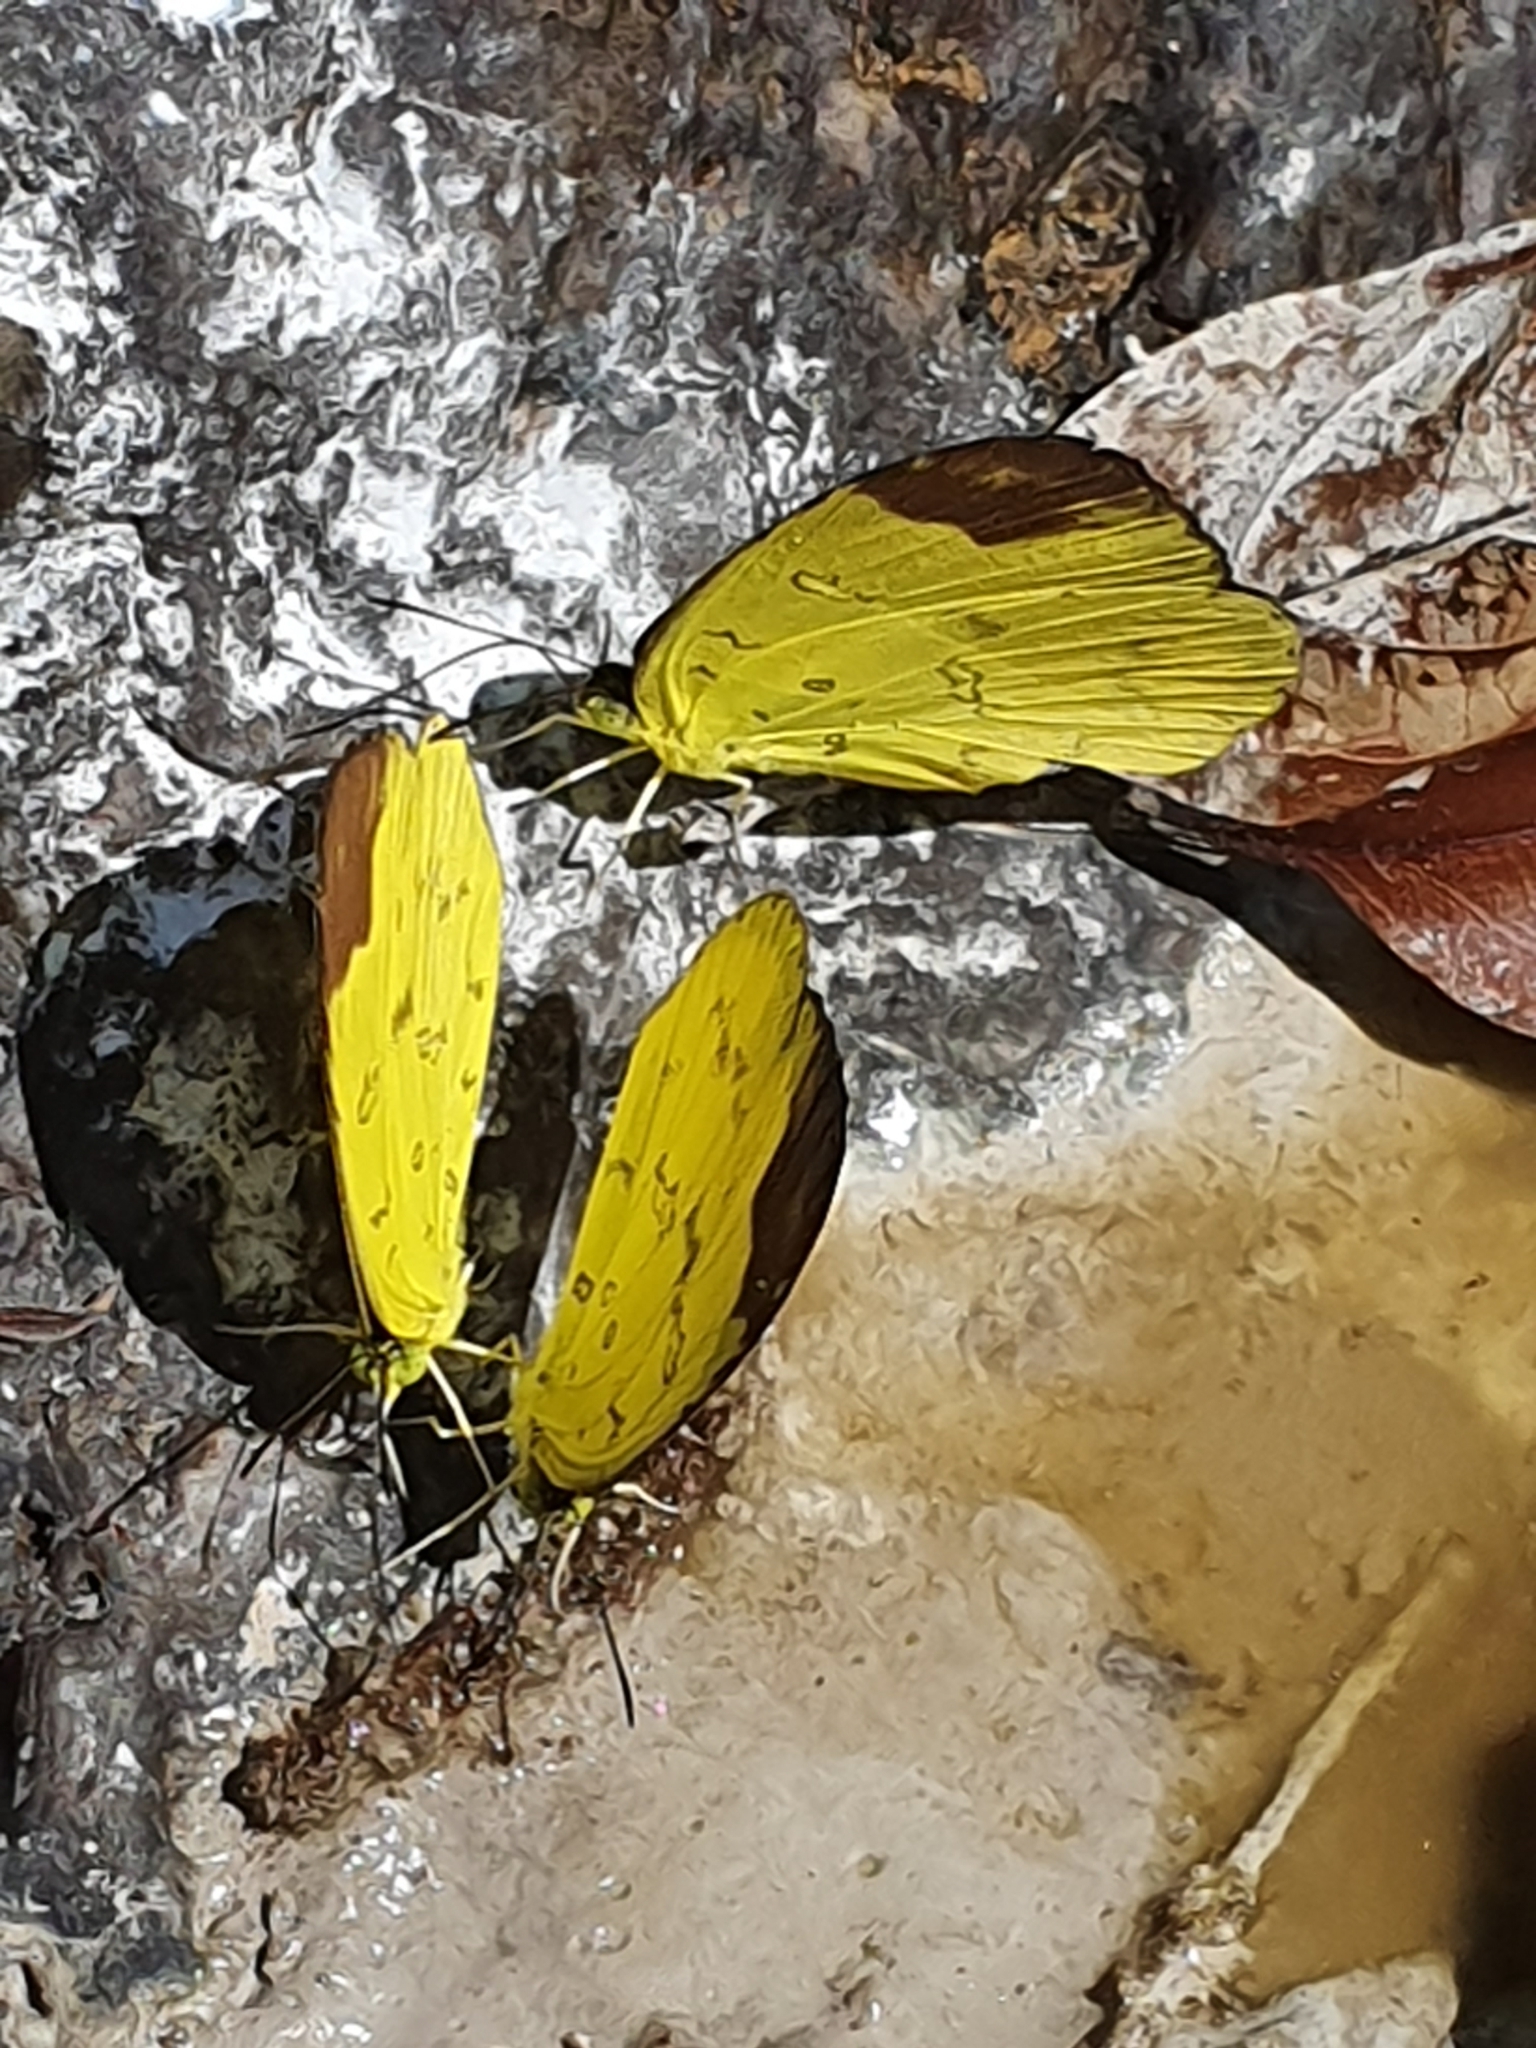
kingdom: Animalia
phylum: Arthropoda
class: Insecta
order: Lepidoptera
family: Pieridae
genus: Eurema
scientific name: Eurema simulatrix
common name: Hill grass yellow
